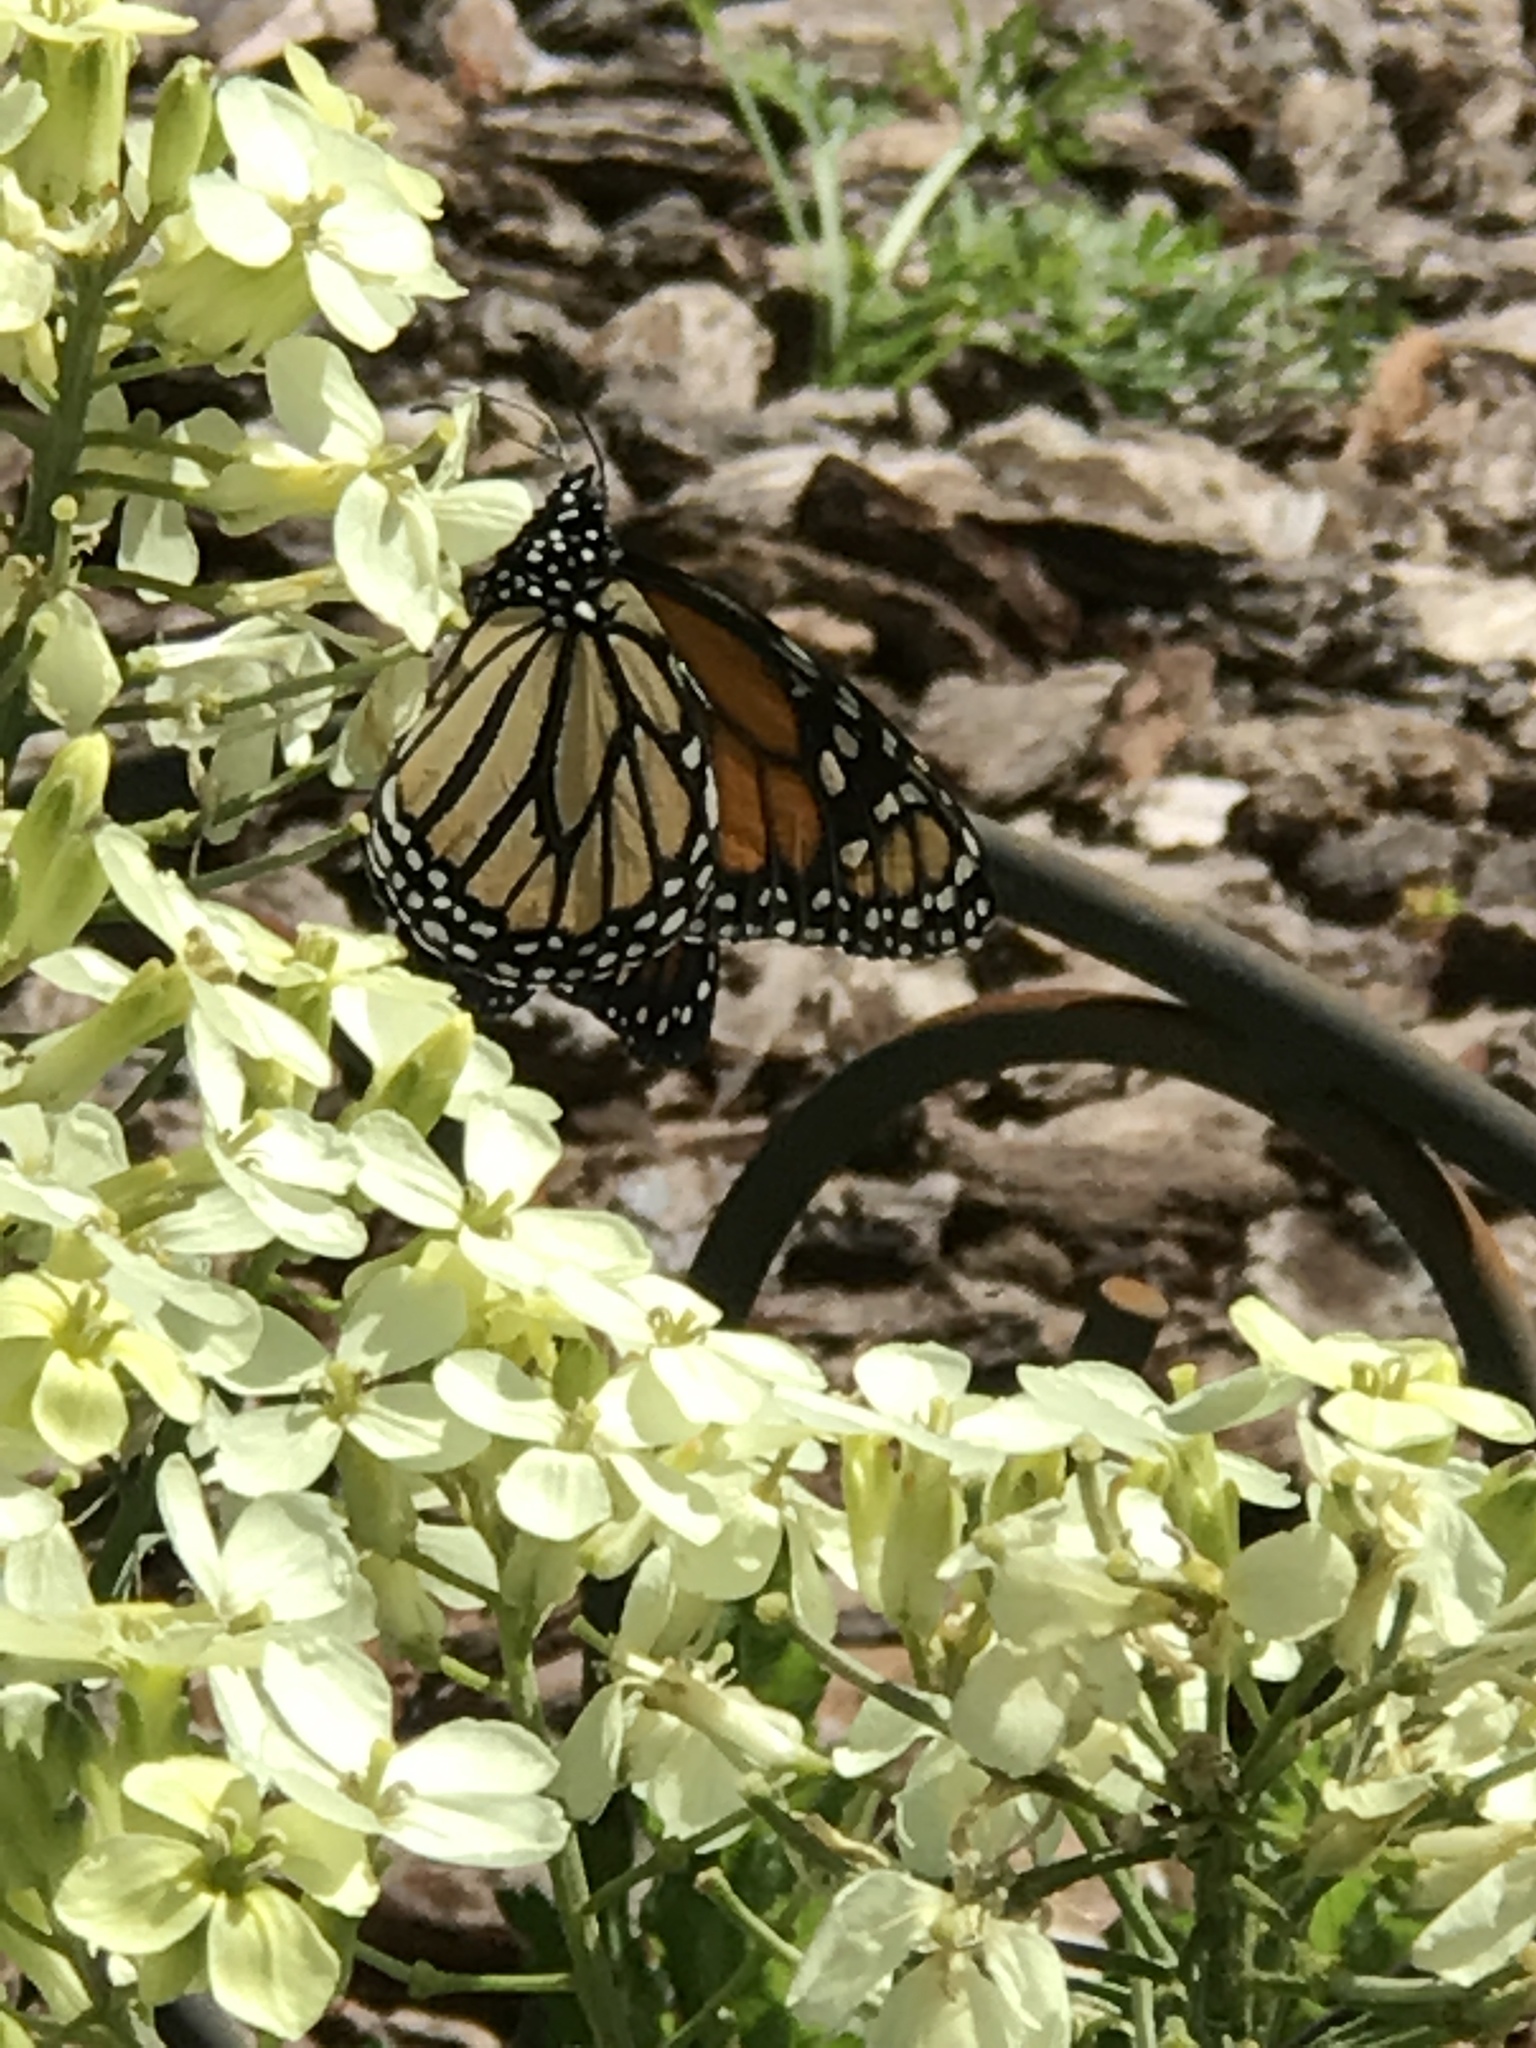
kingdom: Animalia
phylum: Arthropoda
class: Insecta
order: Lepidoptera
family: Nymphalidae
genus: Danaus
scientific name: Danaus plexippus
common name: Monarch
